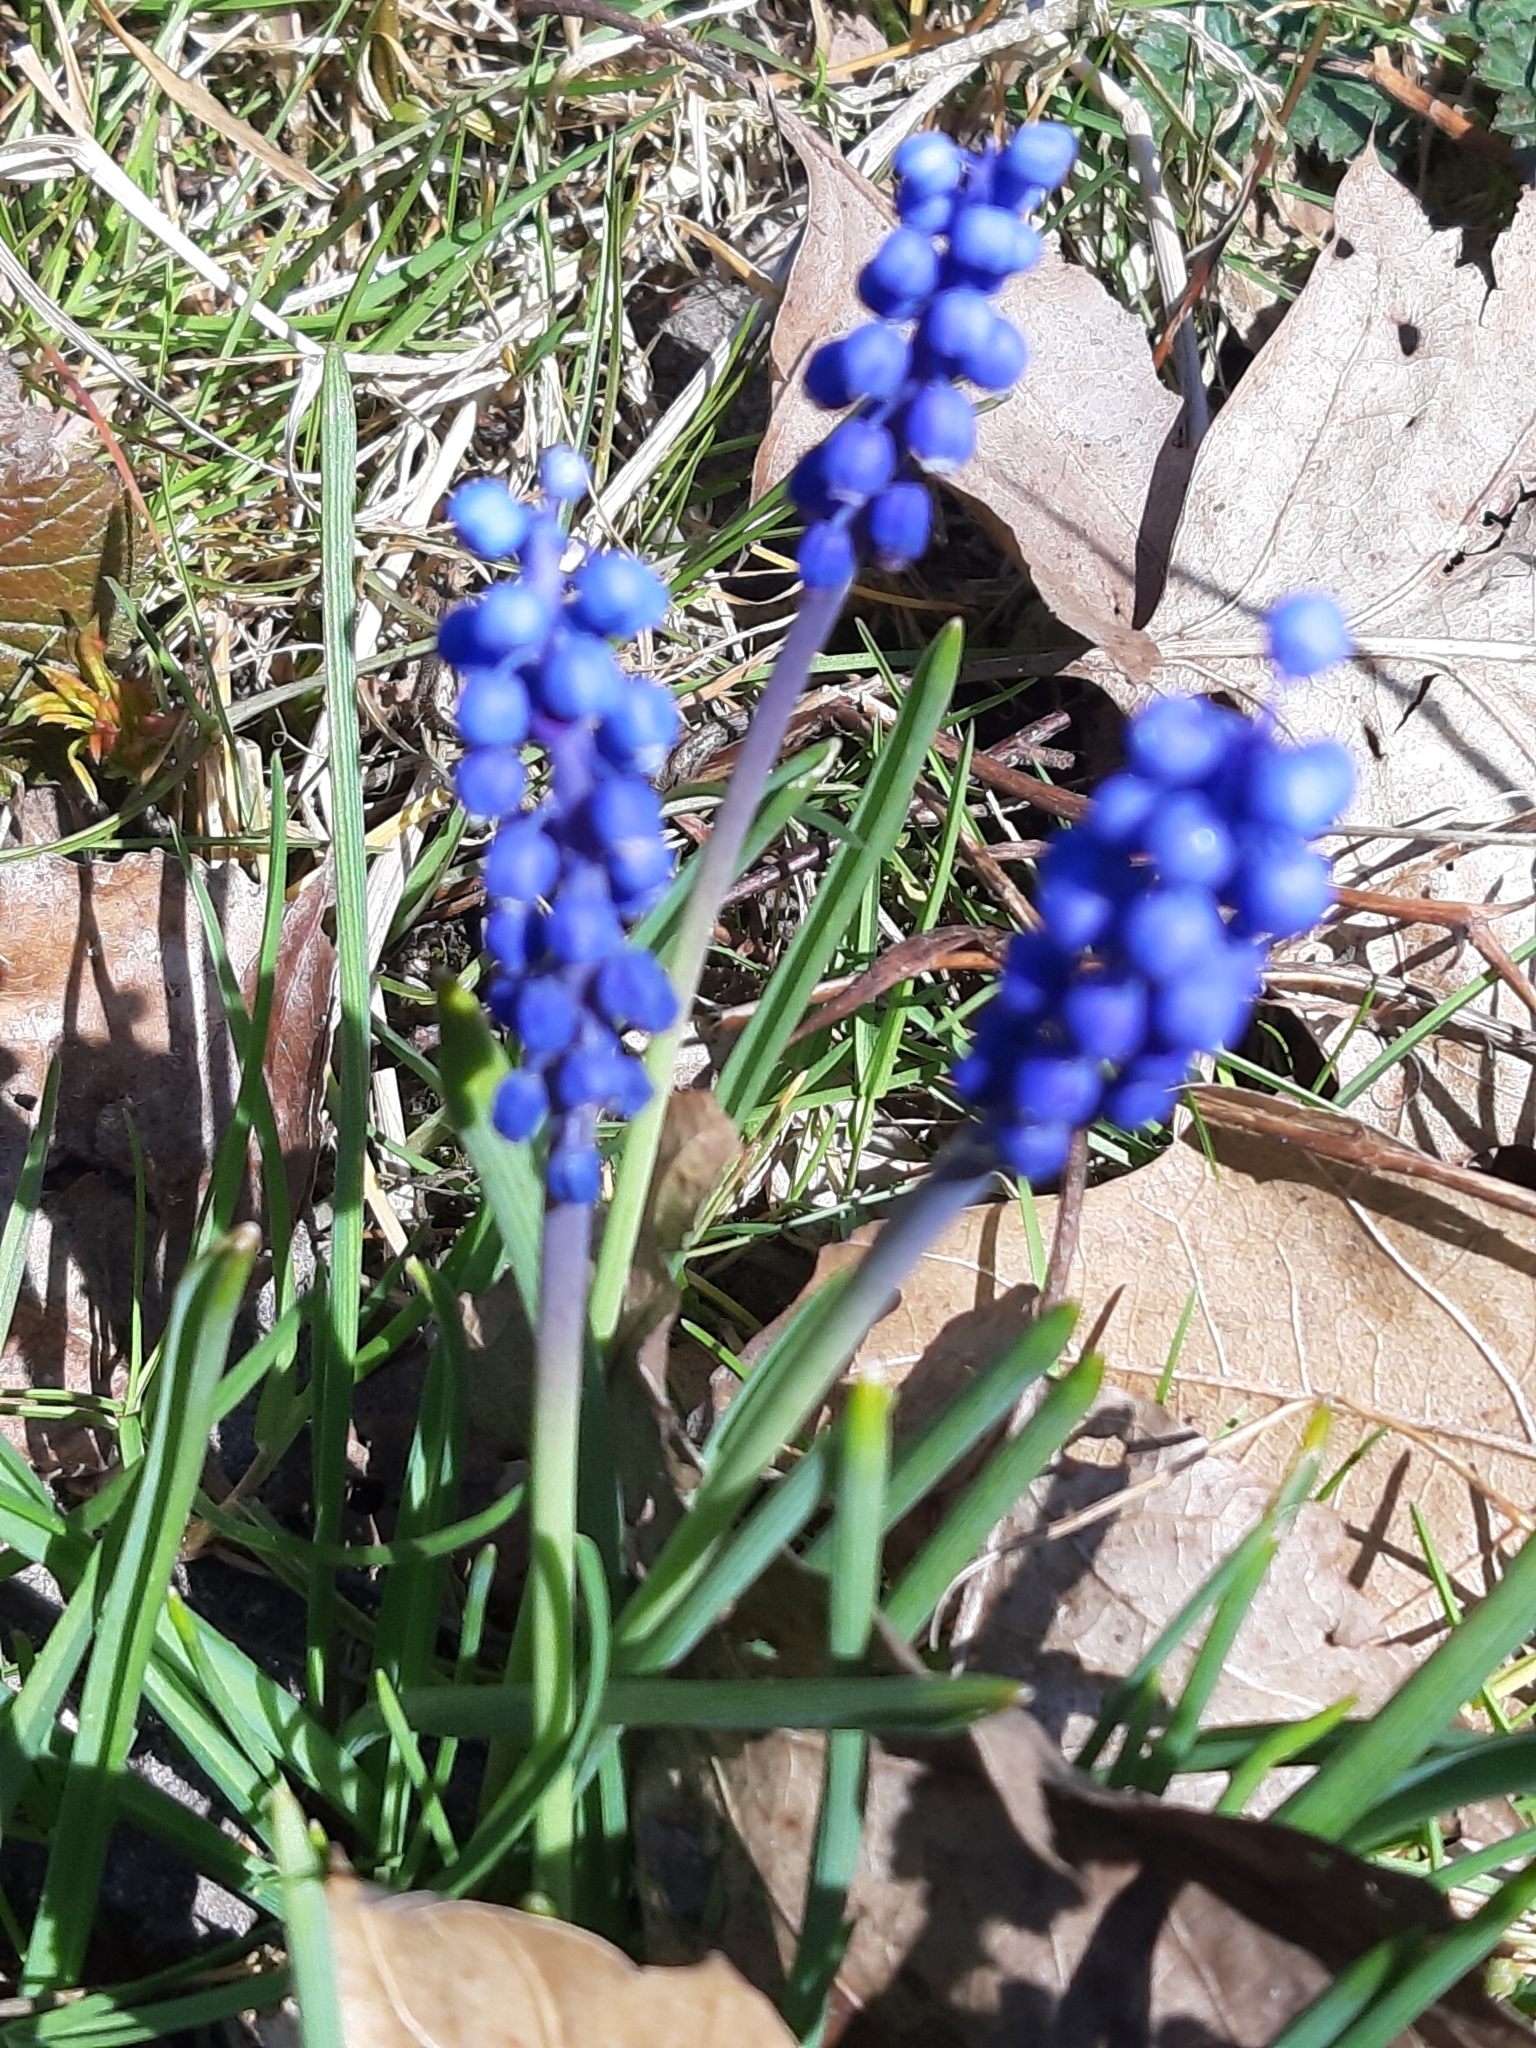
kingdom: Plantae
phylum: Tracheophyta
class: Liliopsida
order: Asparagales
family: Asparagaceae
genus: Muscari
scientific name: Muscari botryoides
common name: Compact grape-hyacinth
